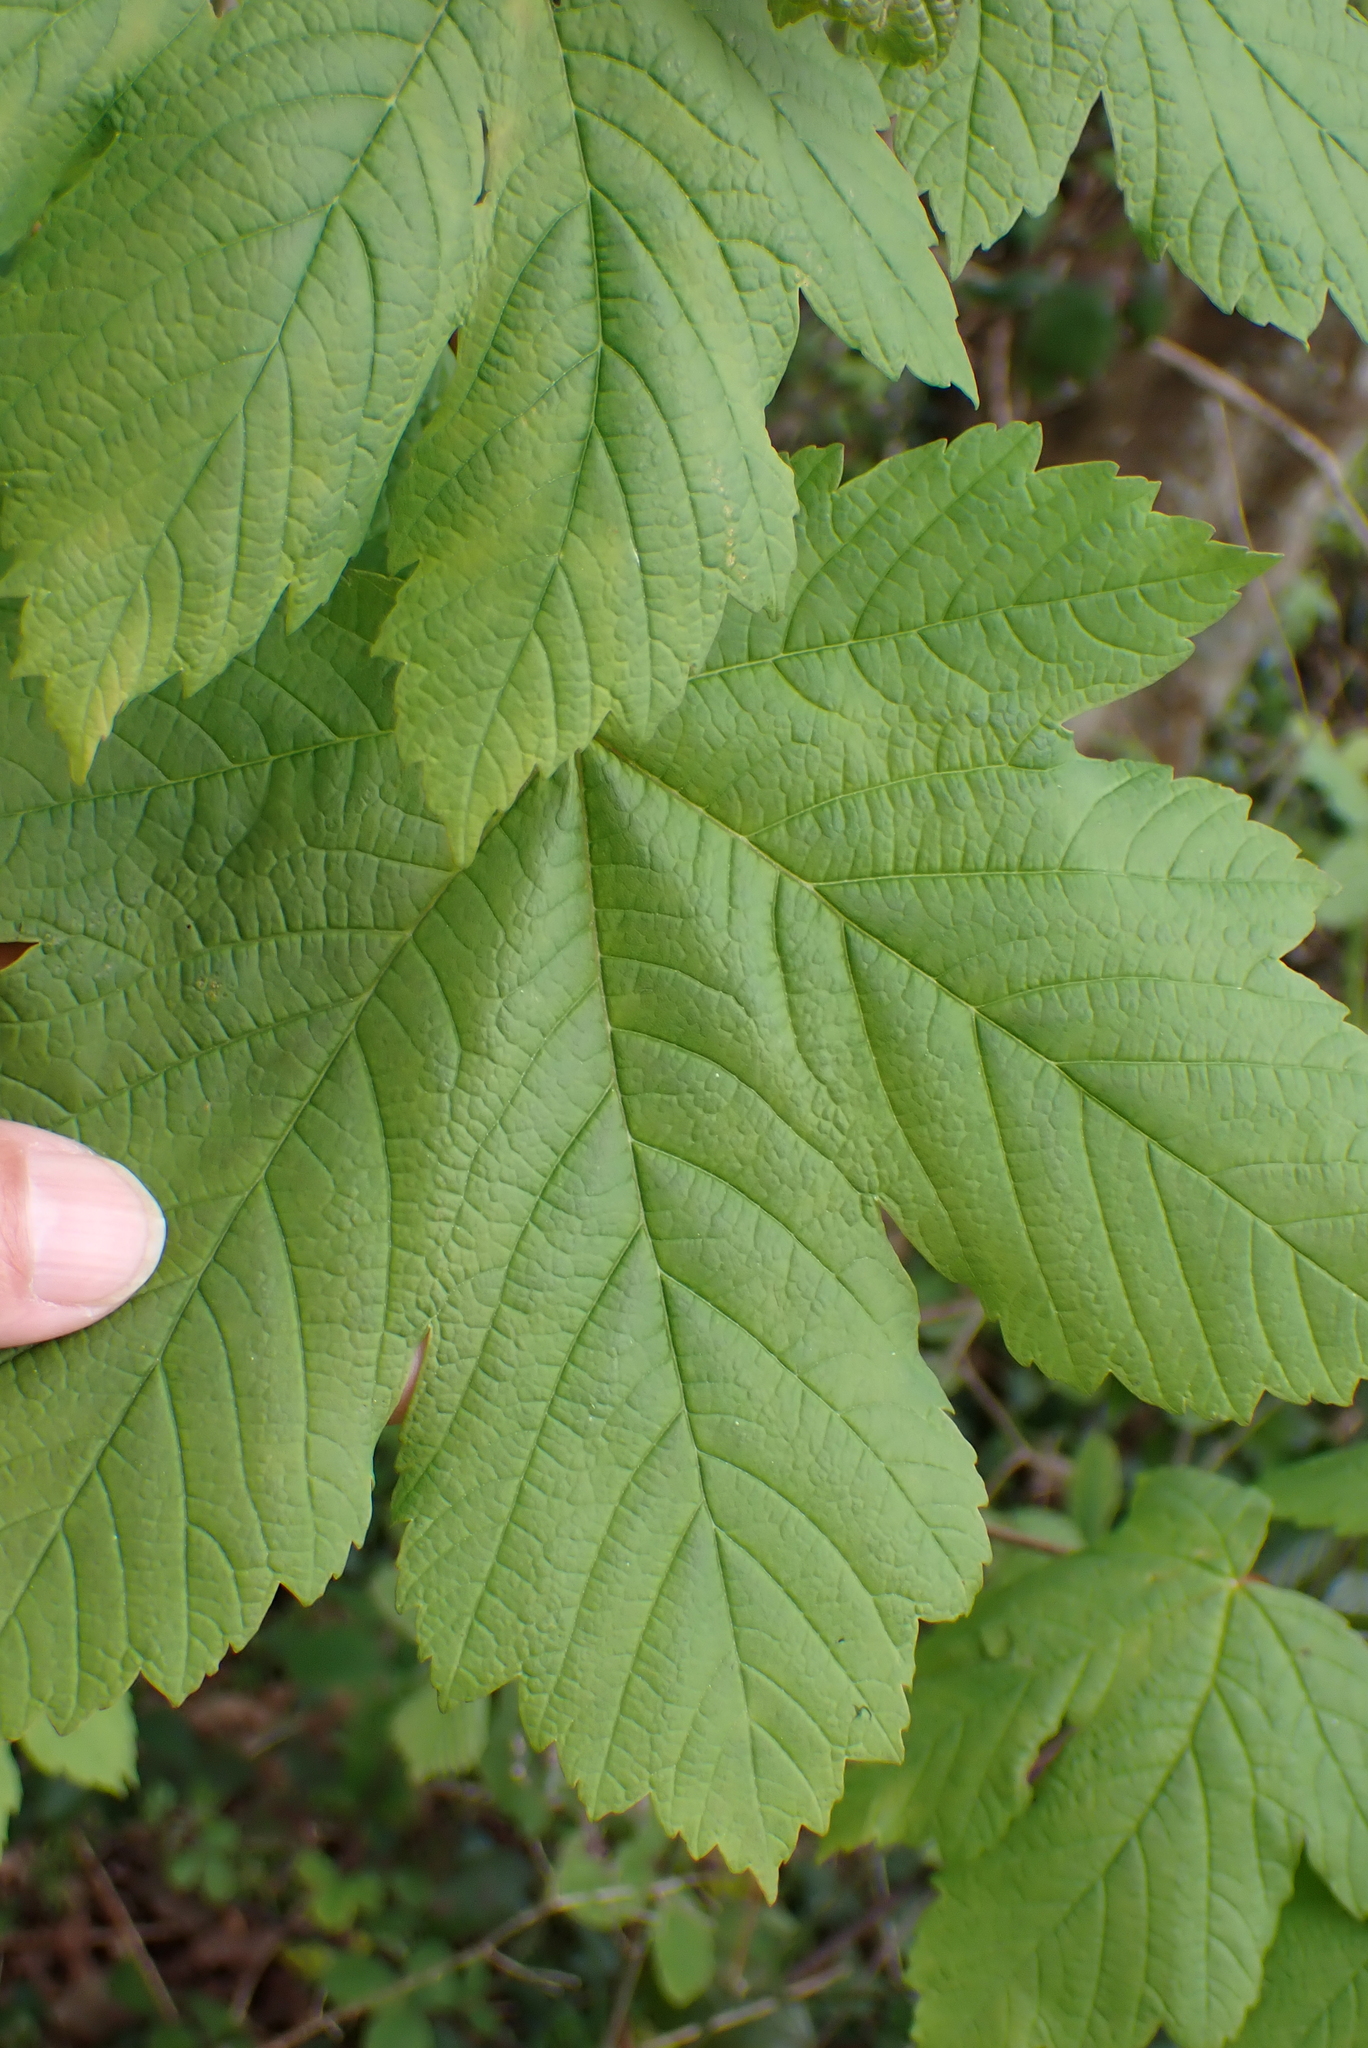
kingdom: Plantae
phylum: Tracheophyta
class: Magnoliopsida
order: Sapindales
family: Sapindaceae
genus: Acer
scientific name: Acer pseudoplatanus
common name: Sycamore
